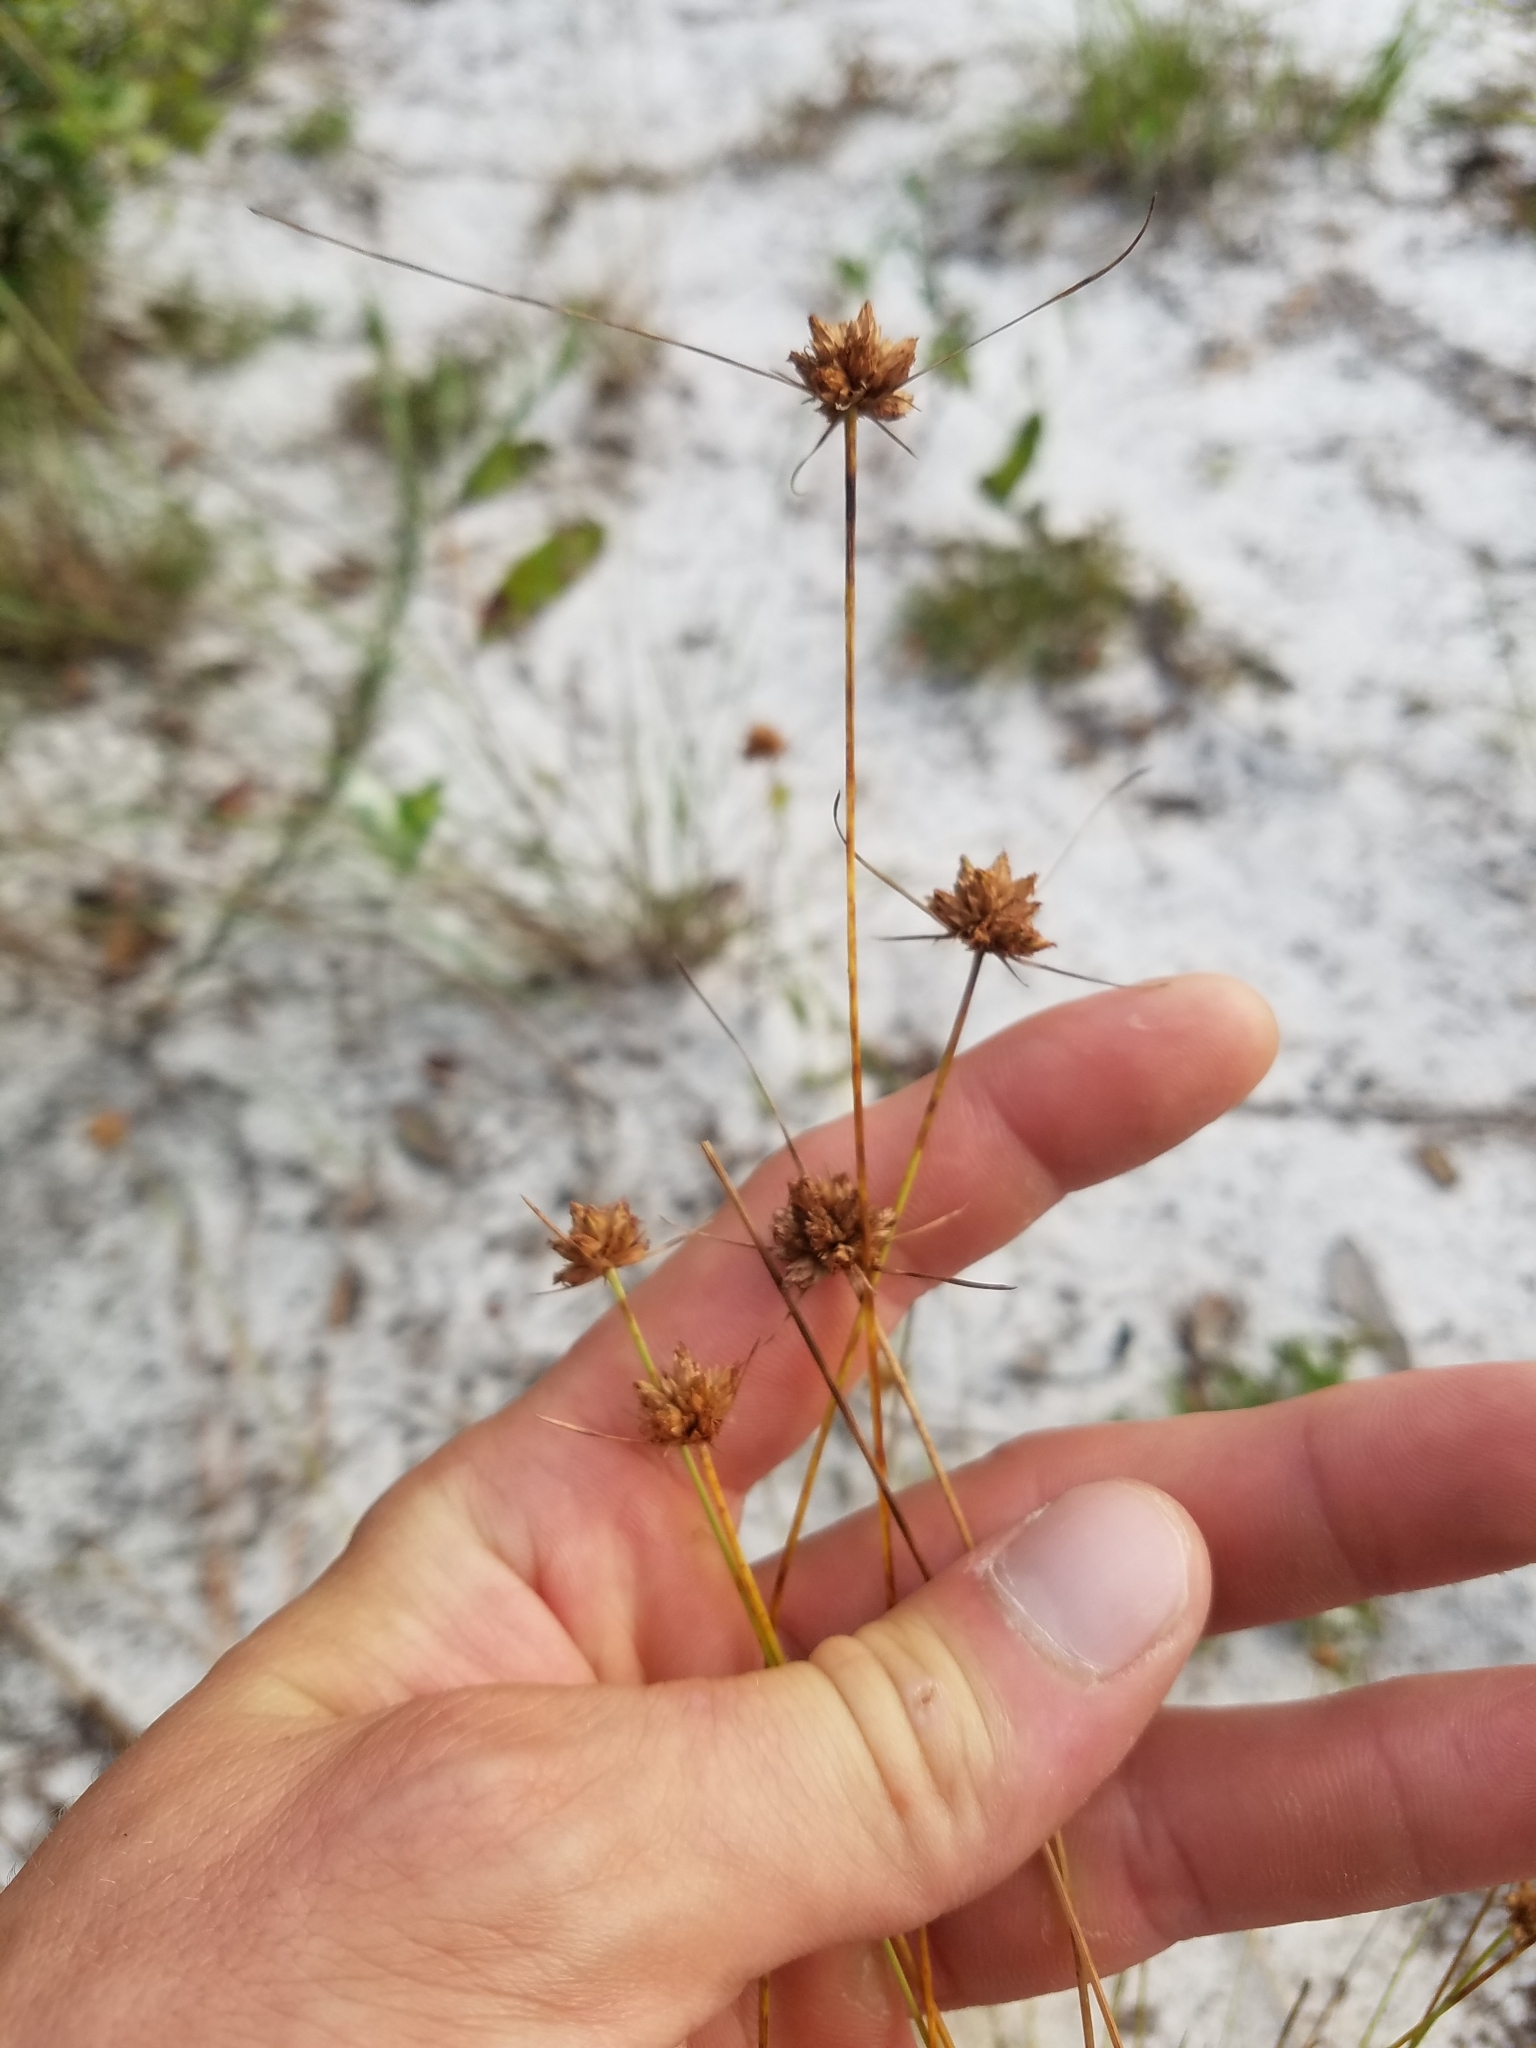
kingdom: Plantae
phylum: Tracheophyta
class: Liliopsida
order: Poales
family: Cyperaceae
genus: Bulbostylis
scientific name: Bulbostylis warei
